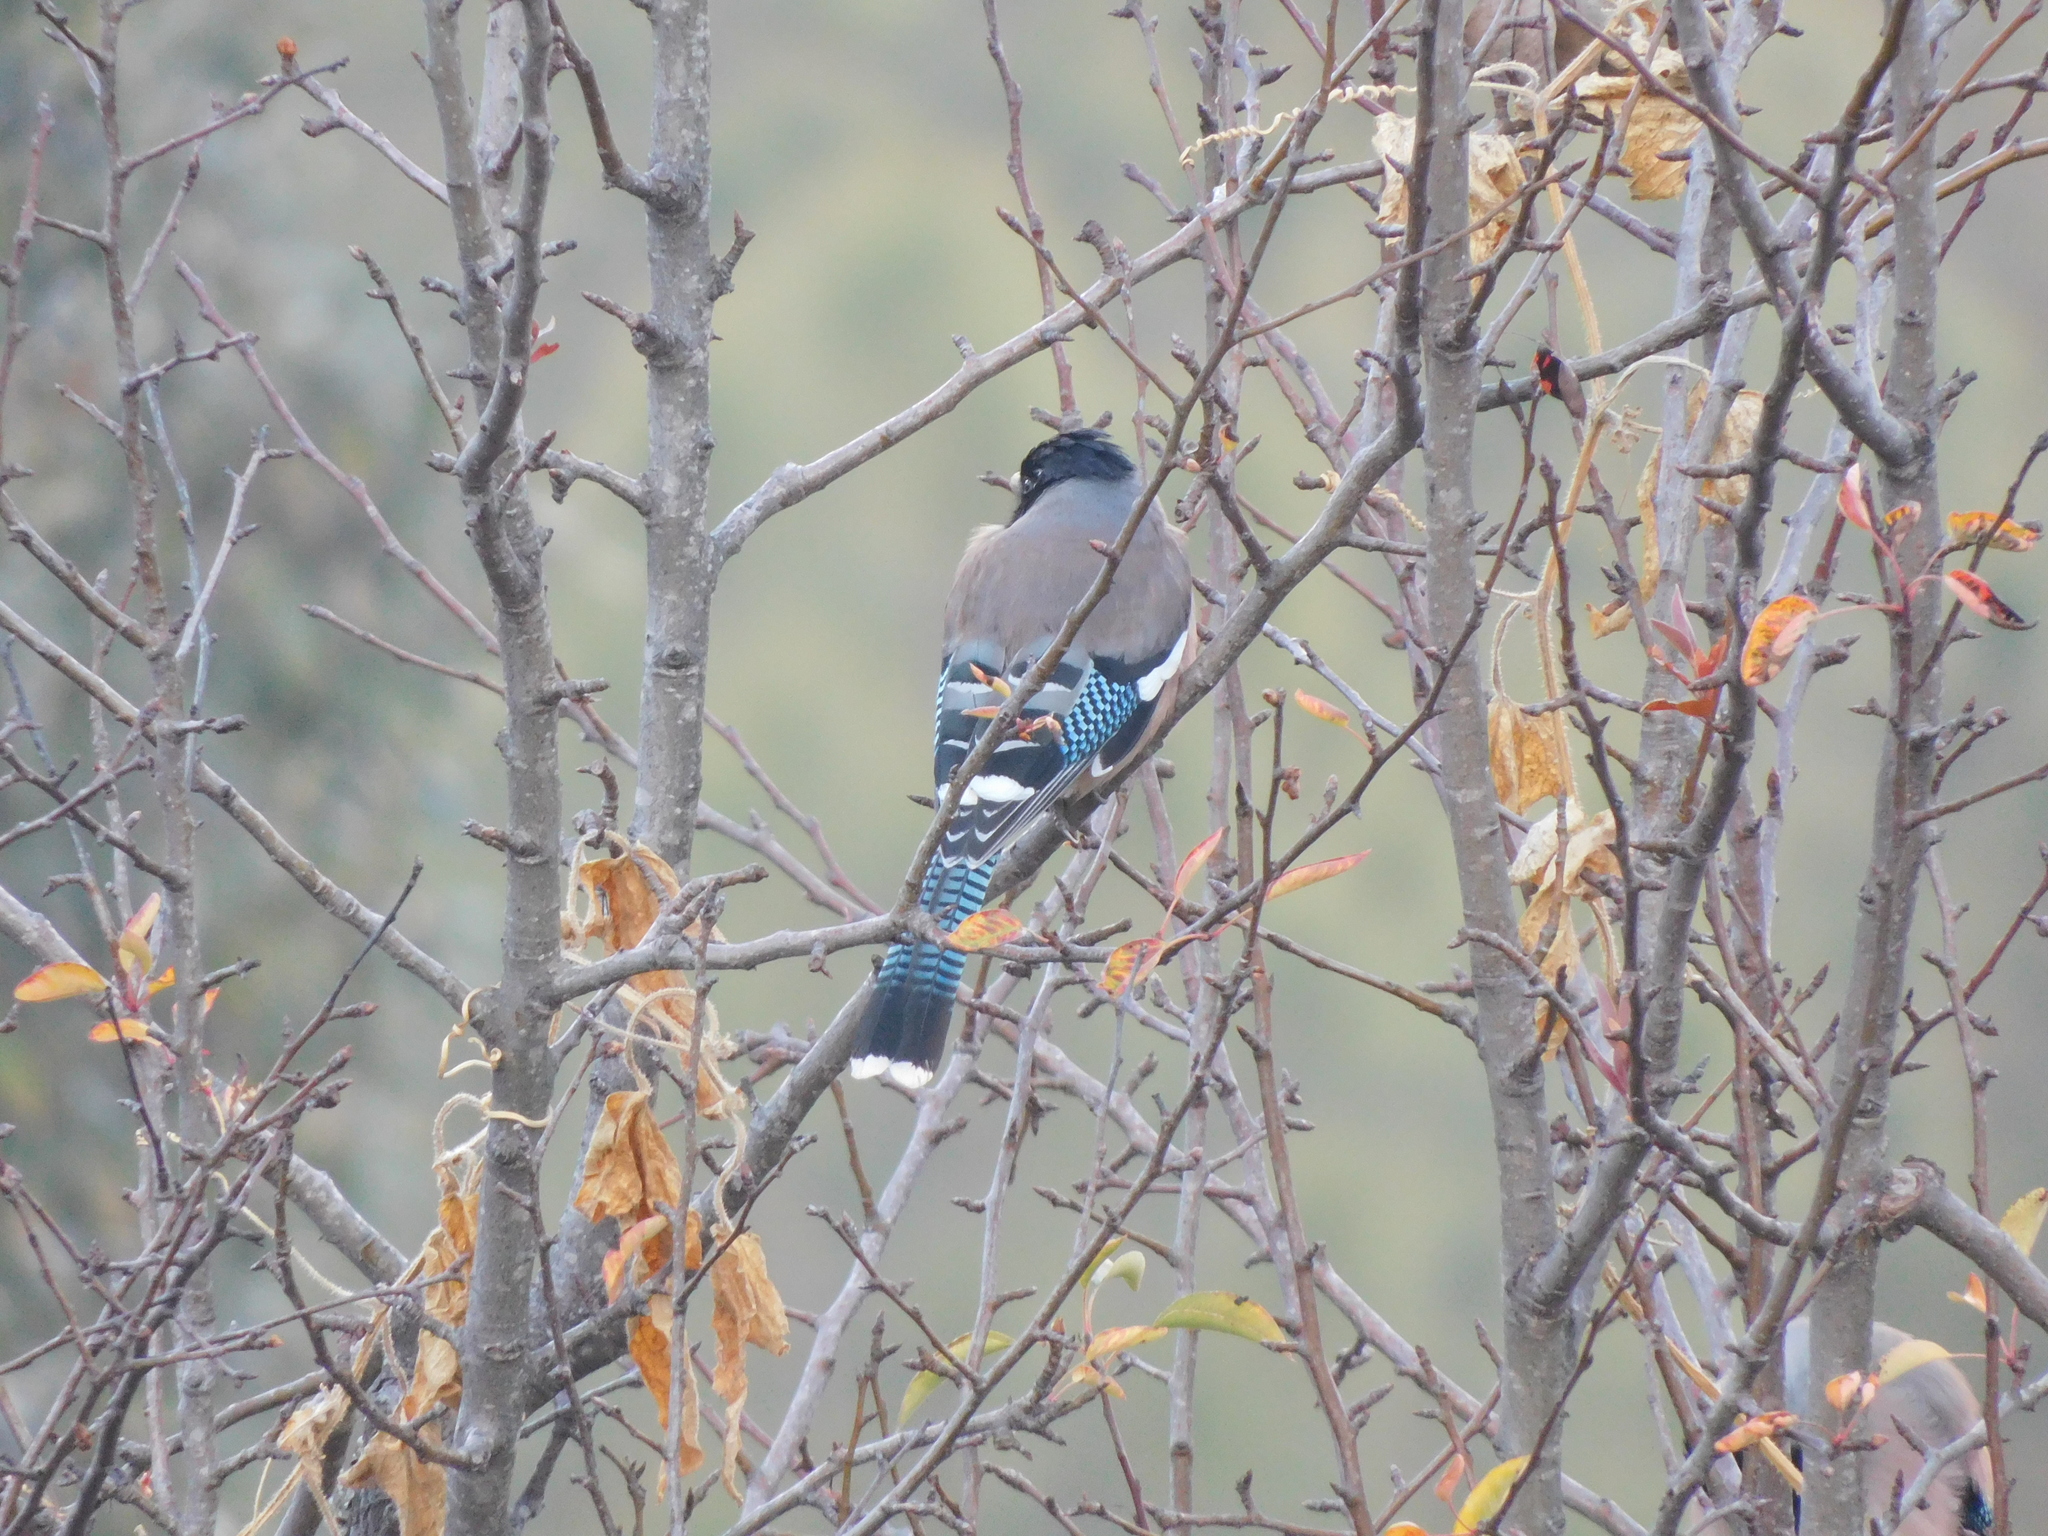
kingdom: Animalia
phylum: Chordata
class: Aves
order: Passeriformes
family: Corvidae
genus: Garrulus
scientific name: Garrulus lanceolatus
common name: Black-headed jay
